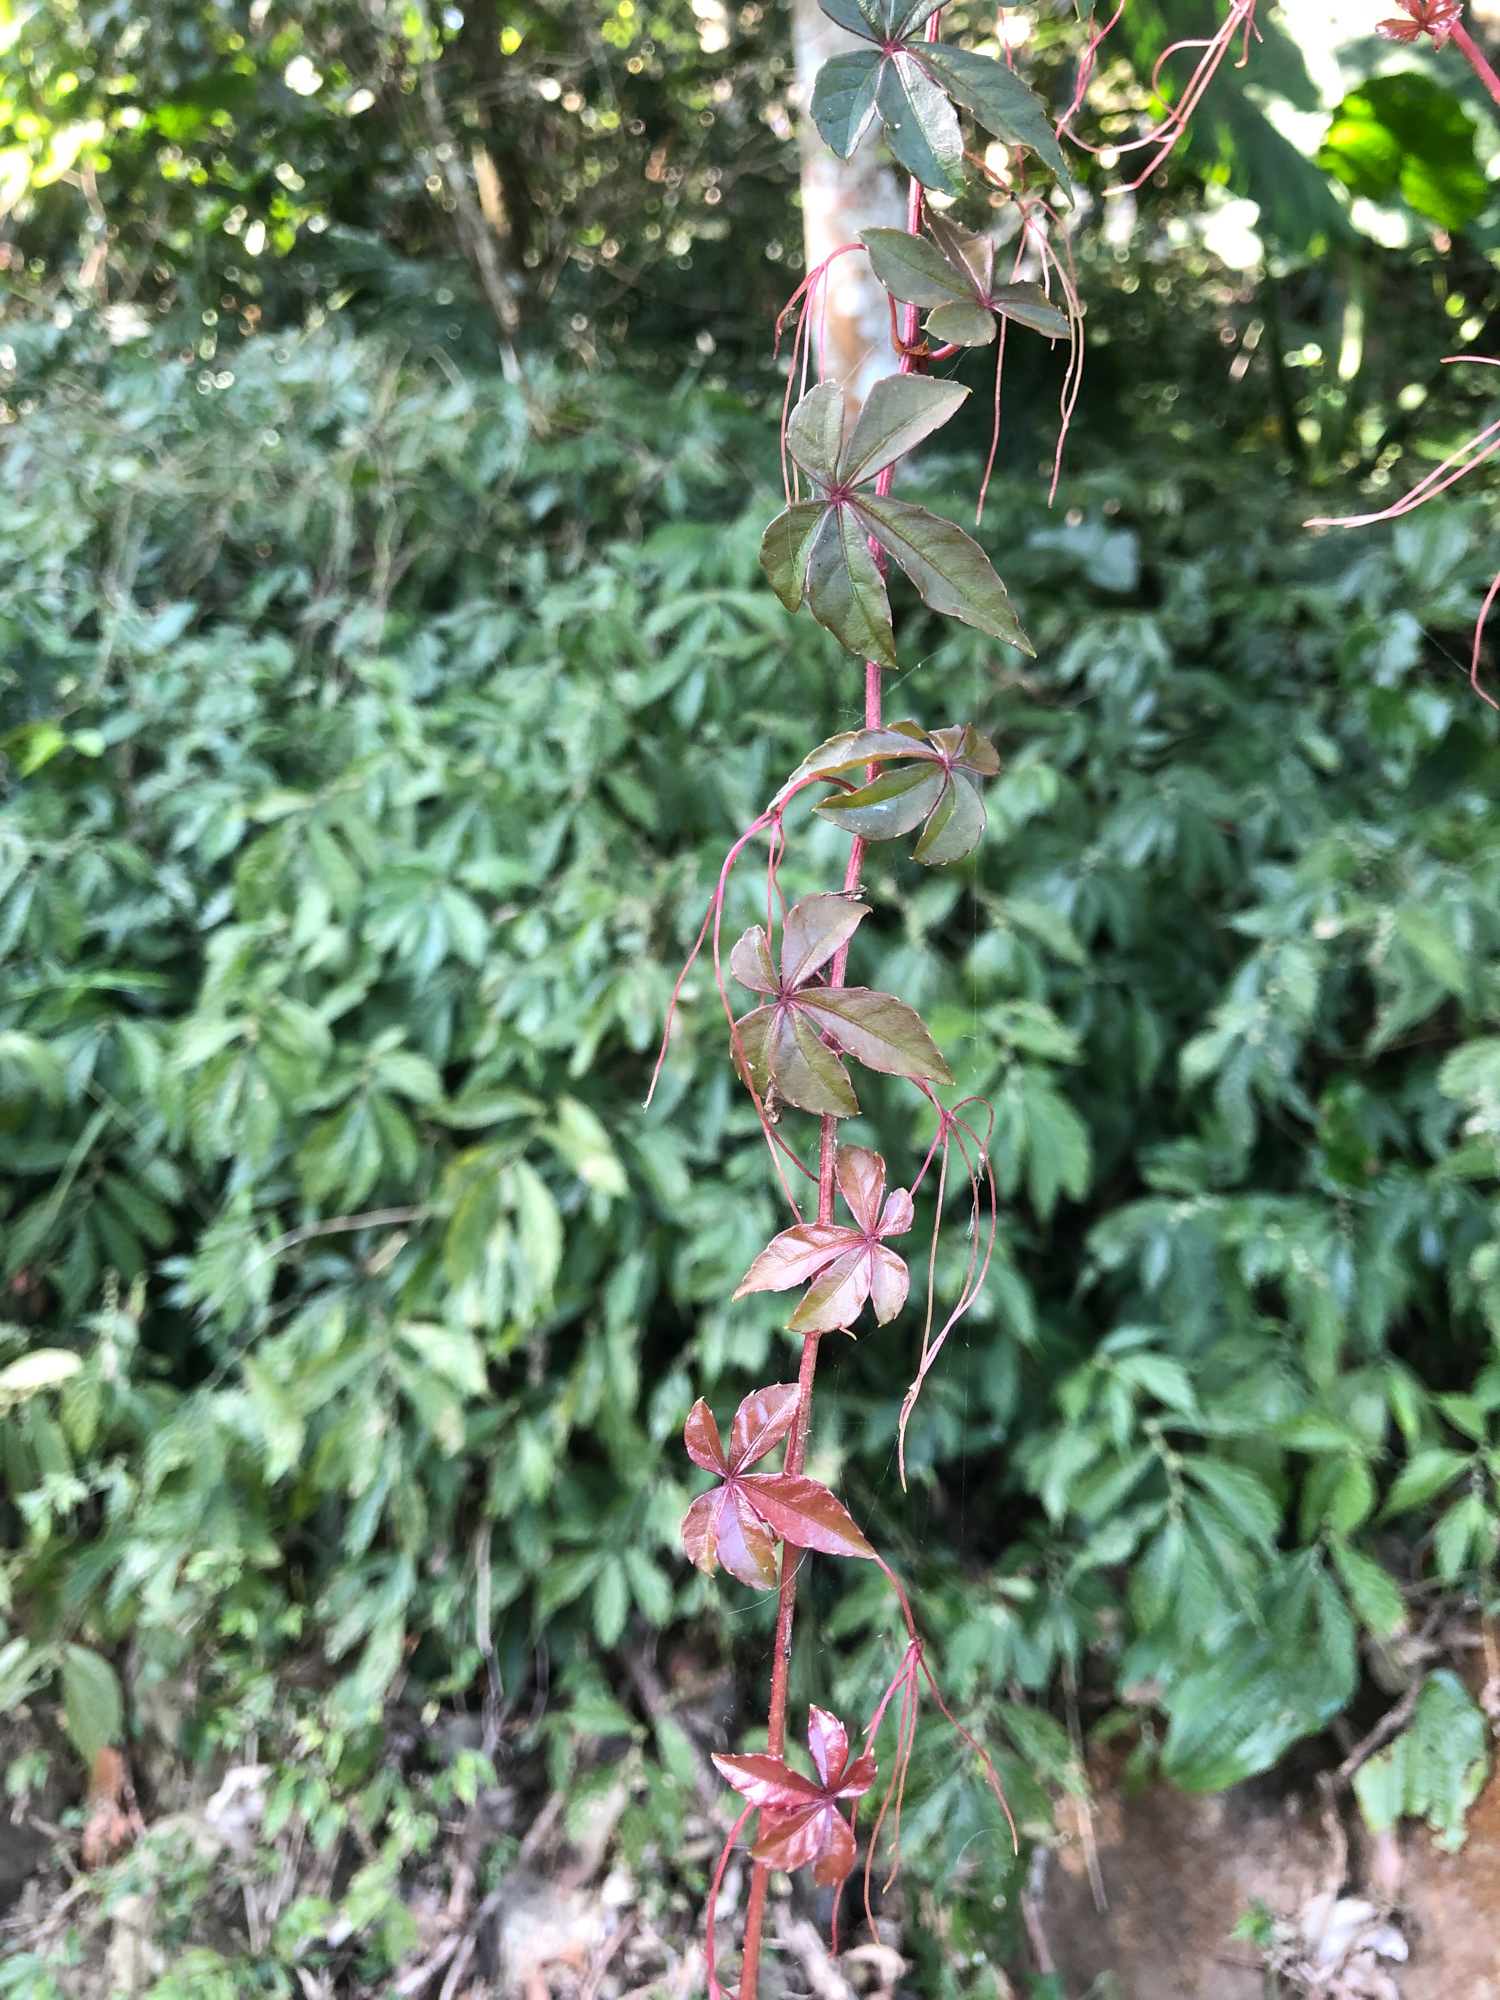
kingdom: Plantae
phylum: Tracheophyta
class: Magnoliopsida
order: Vitales
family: Vitaceae
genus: Tetrastigma
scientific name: Tetrastigma obtectum
